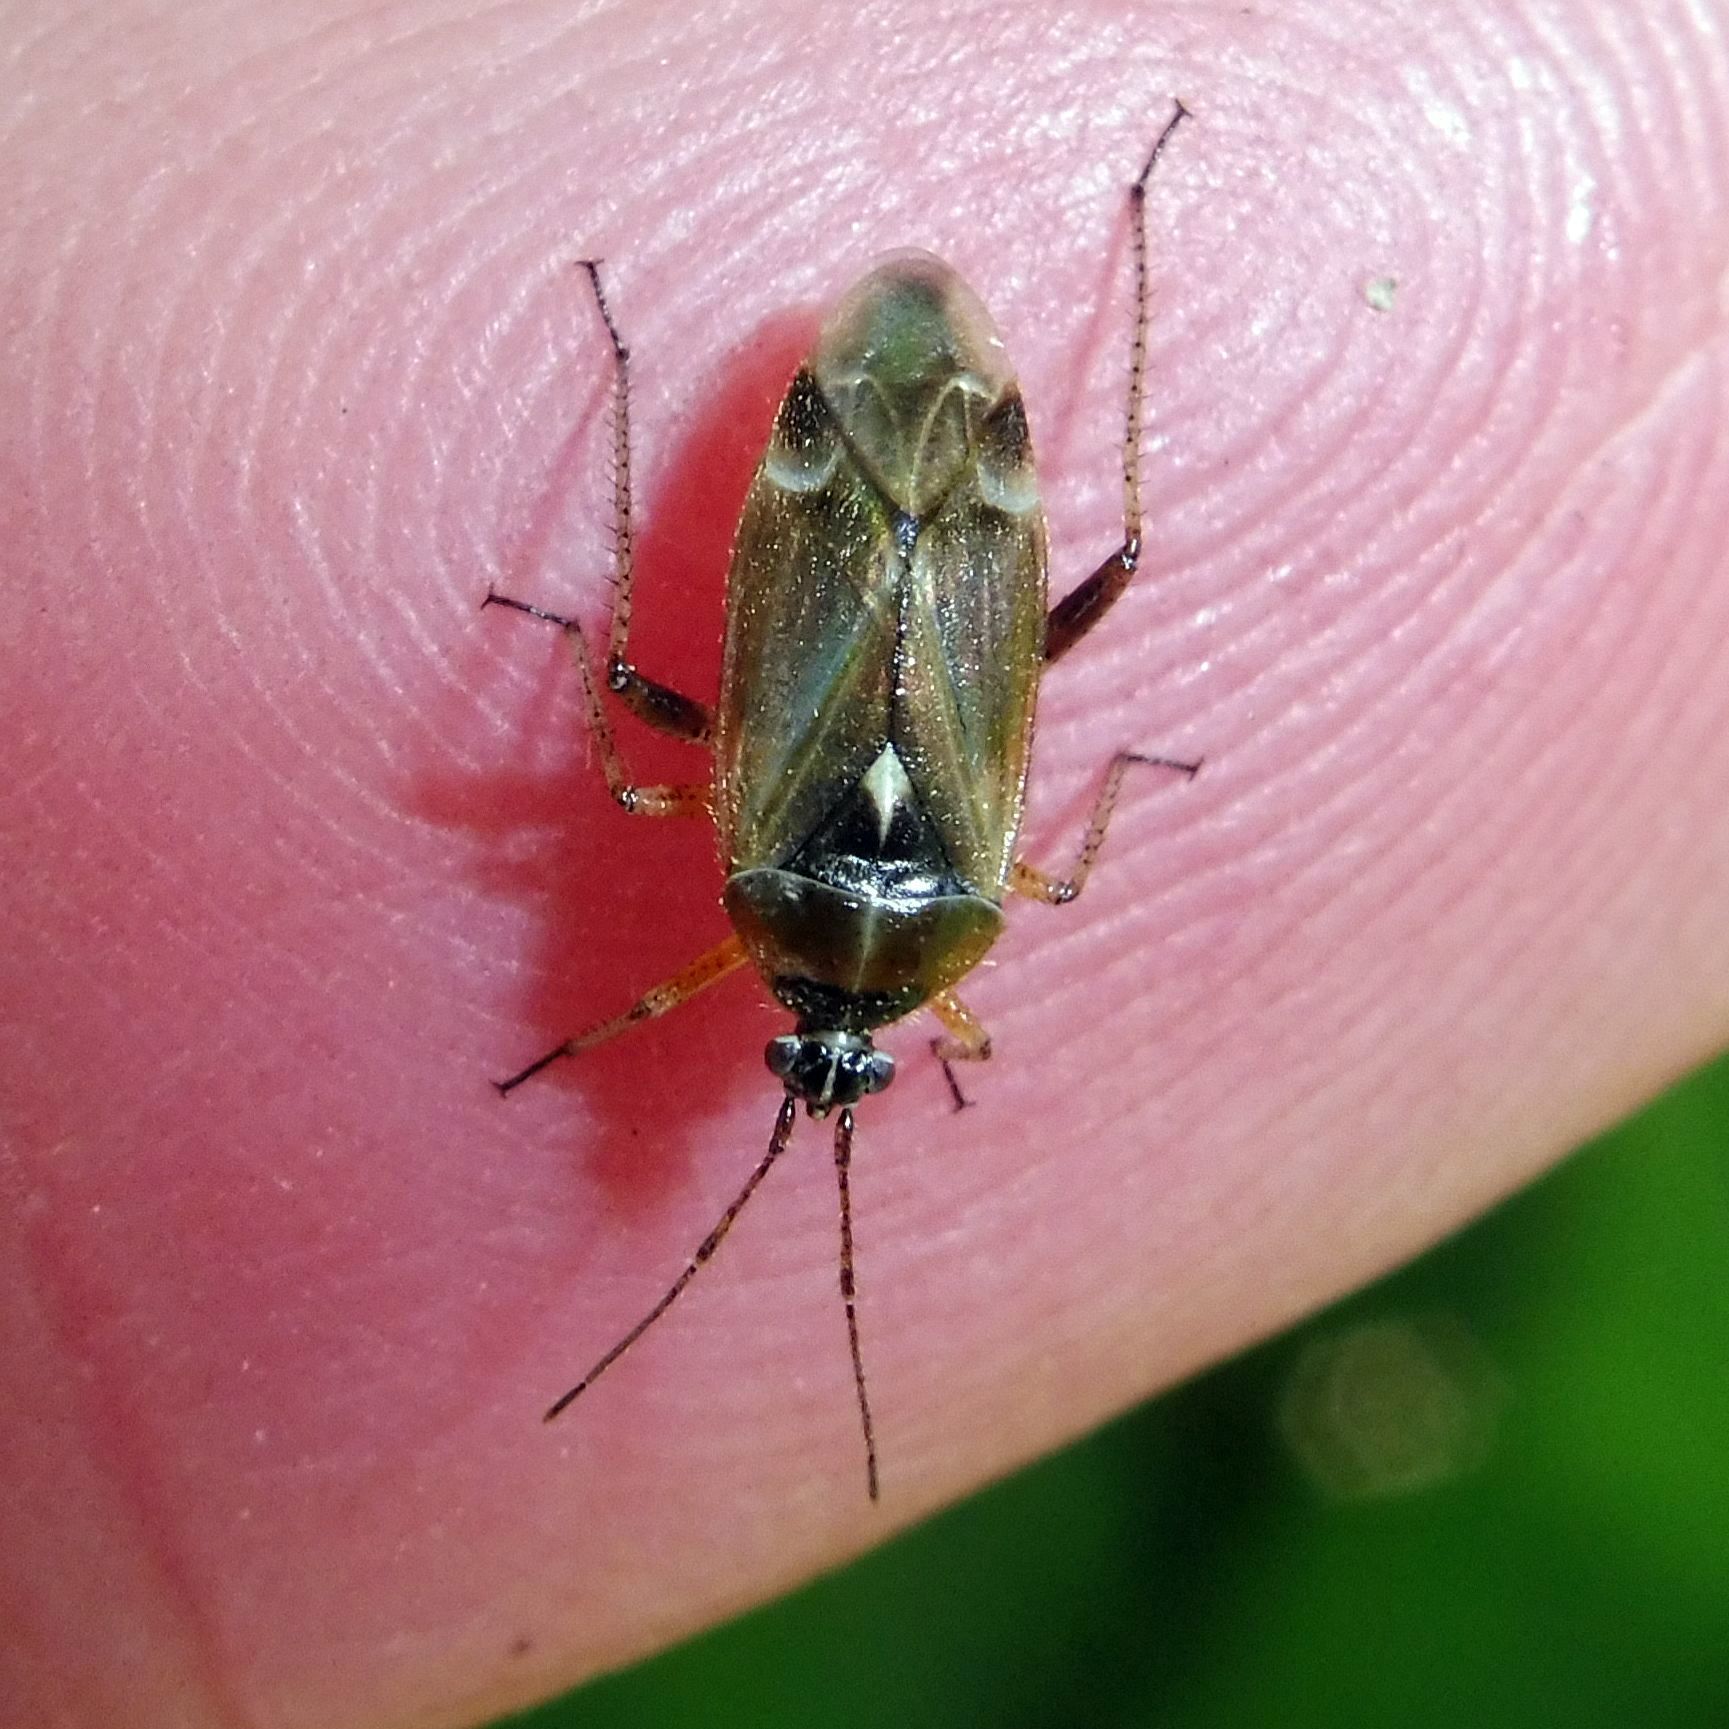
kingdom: Animalia
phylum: Arthropoda
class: Insecta
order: Hemiptera
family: Miridae
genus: Harpocera
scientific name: Harpocera thoracica
